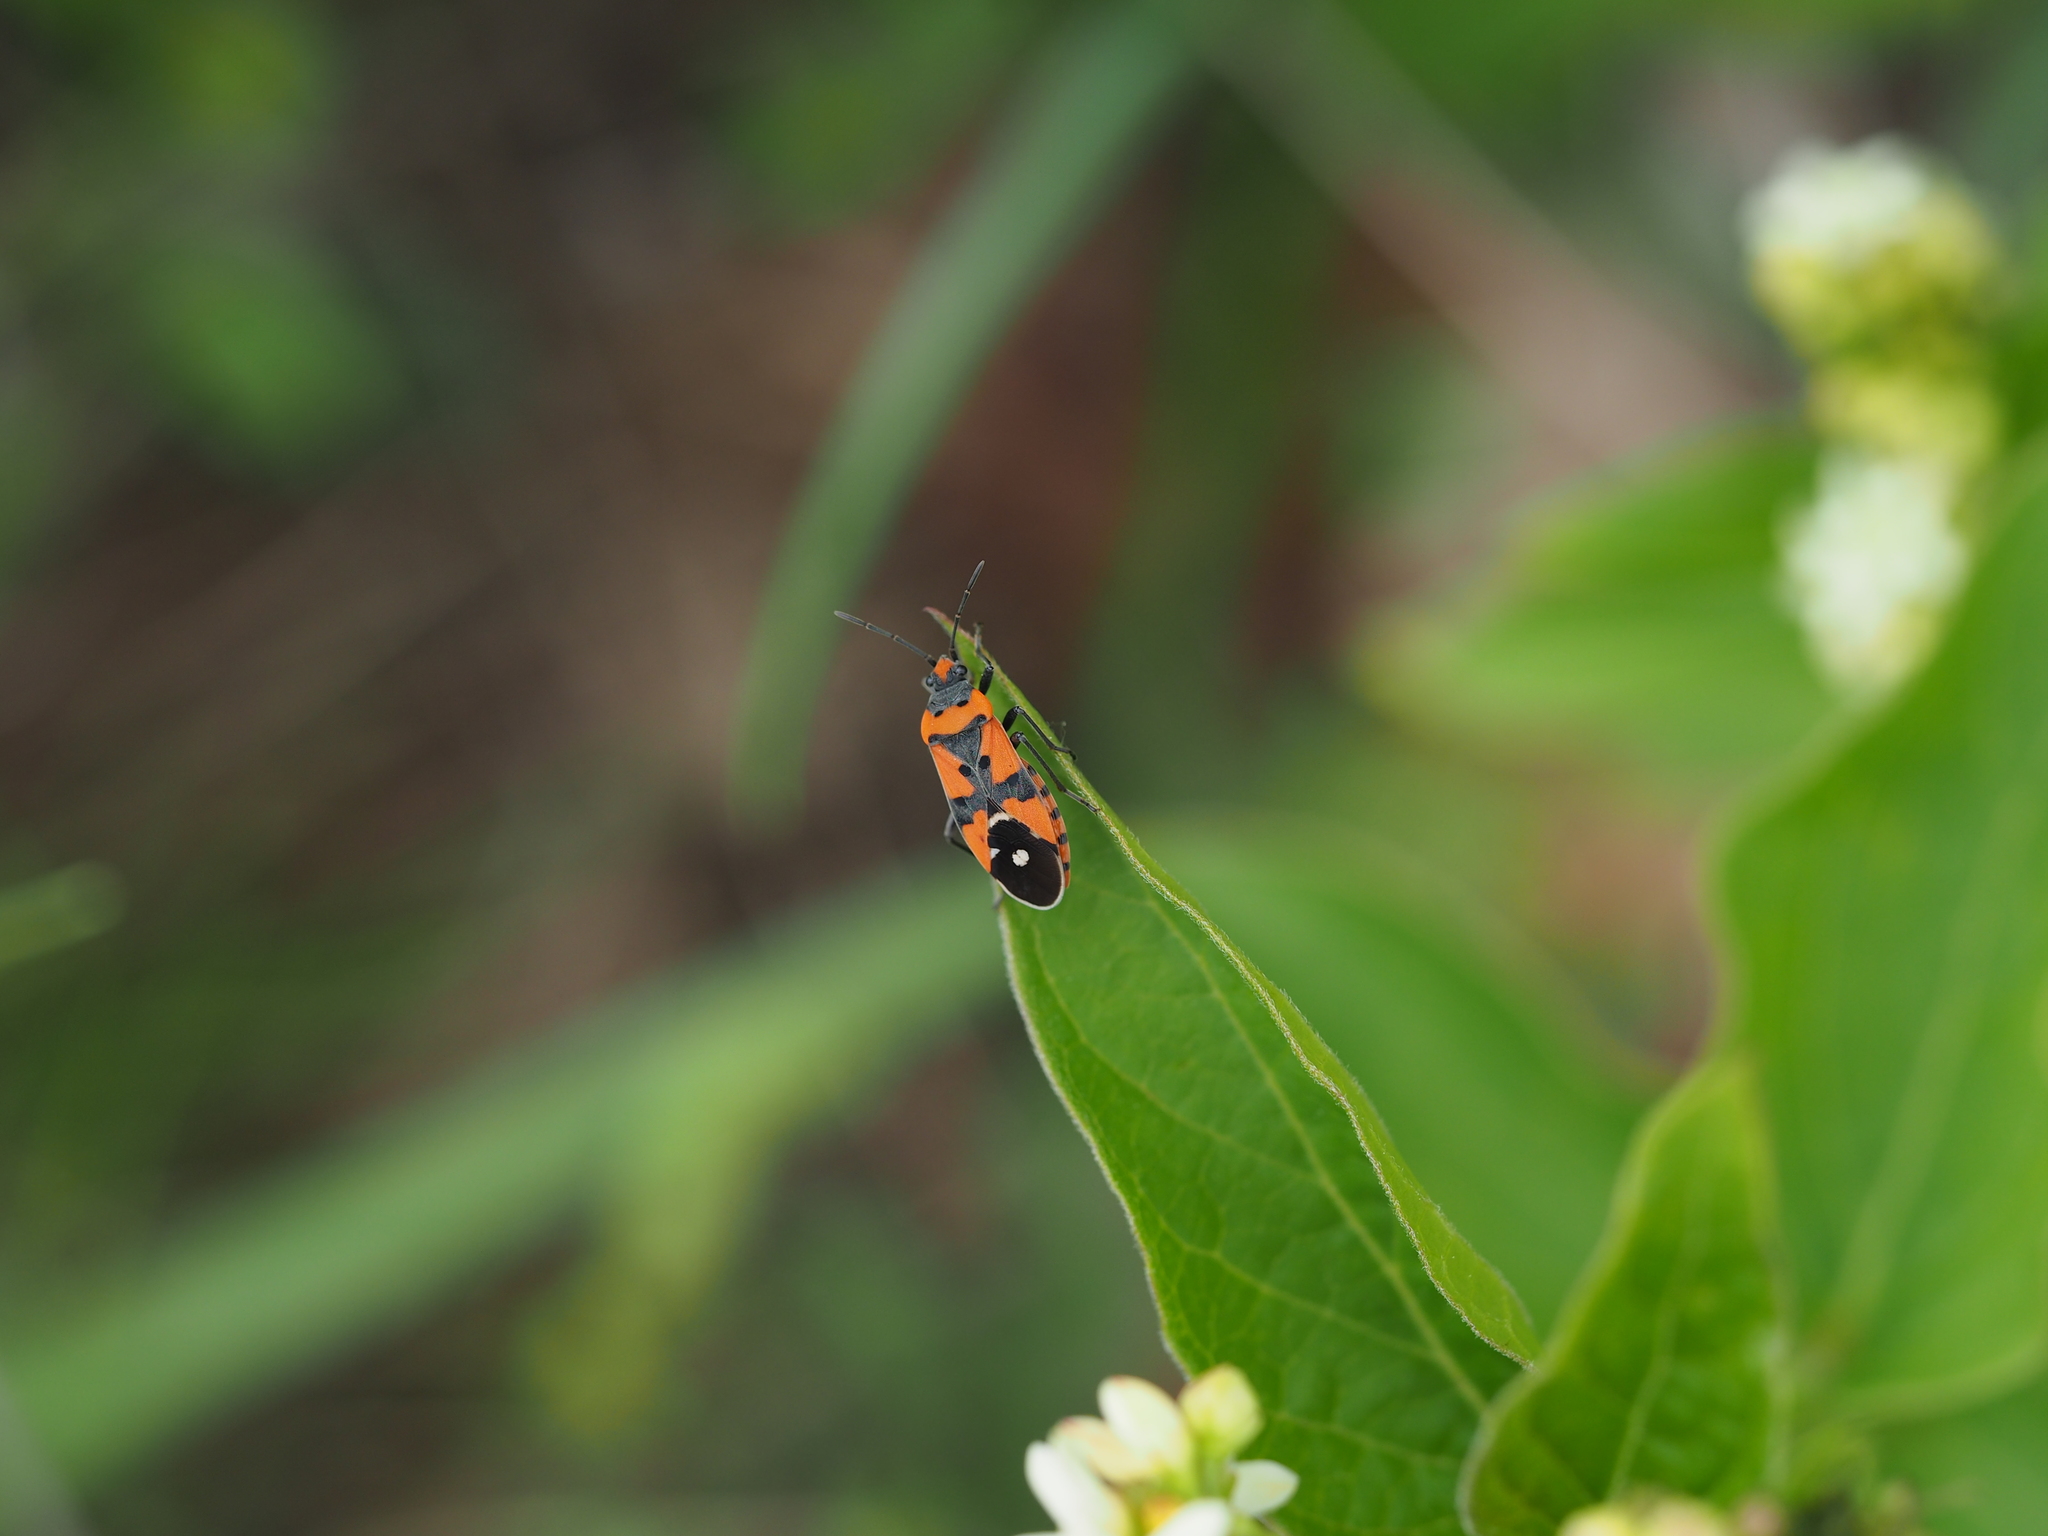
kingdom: Animalia
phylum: Arthropoda
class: Insecta
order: Hemiptera
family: Lygaeidae
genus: Lygaeus
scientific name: Lygaeus equestris
